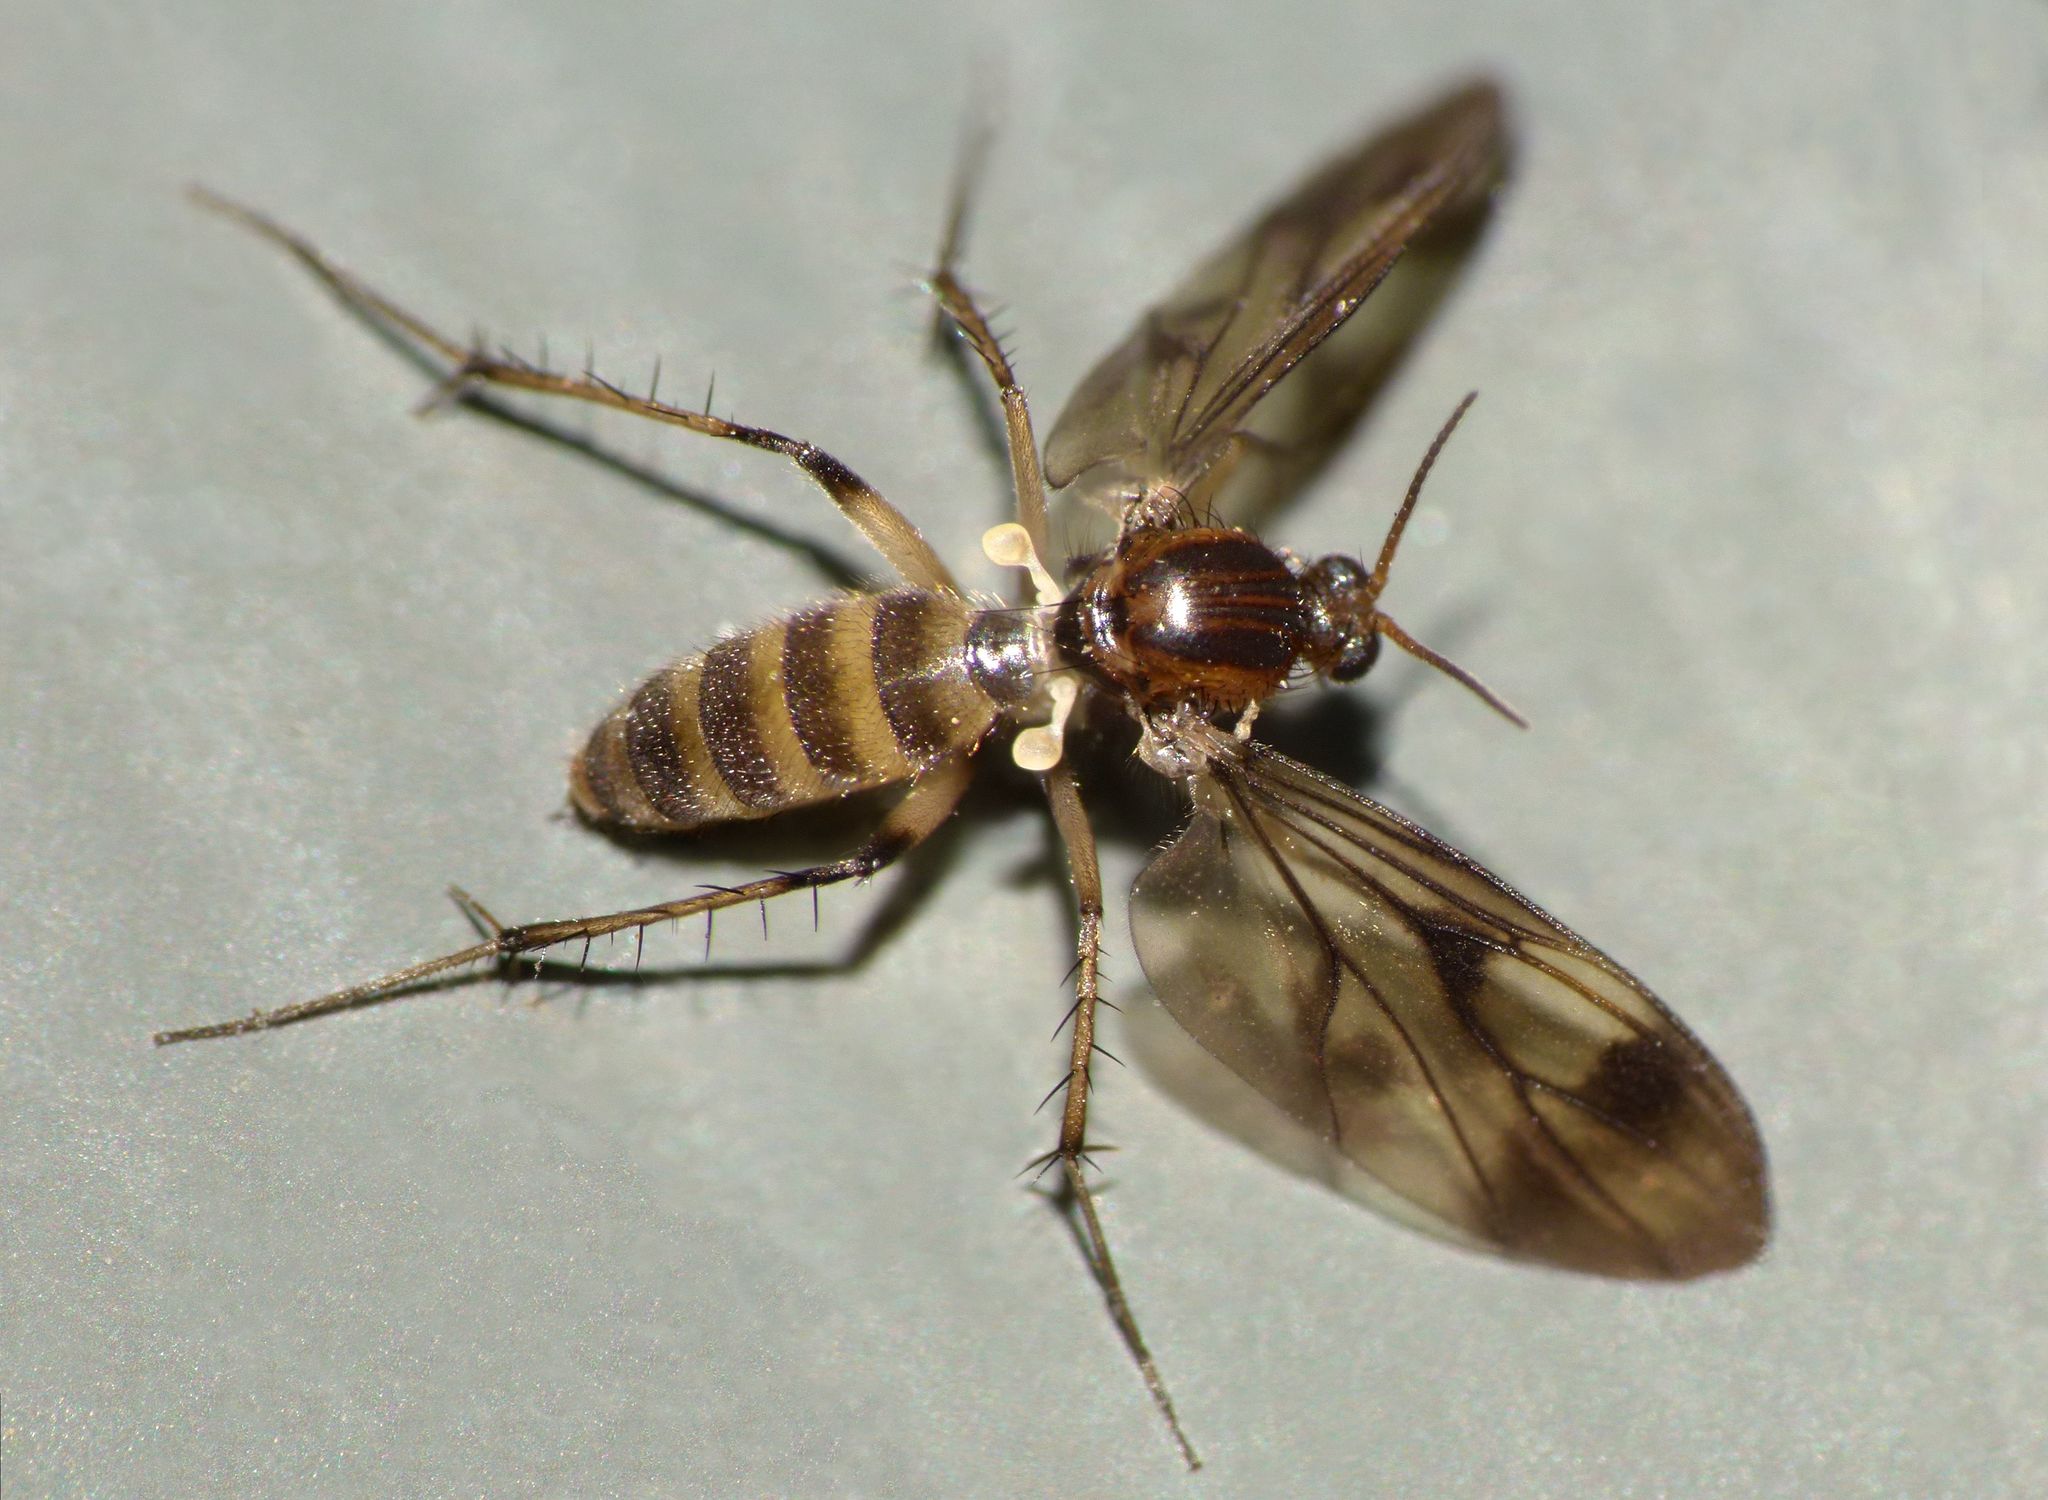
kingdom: Animalia
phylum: Arthropoda
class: Insecta
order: Diptera
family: Mycetophilidae
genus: Anomalomyia
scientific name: Anomalomyia guttata
